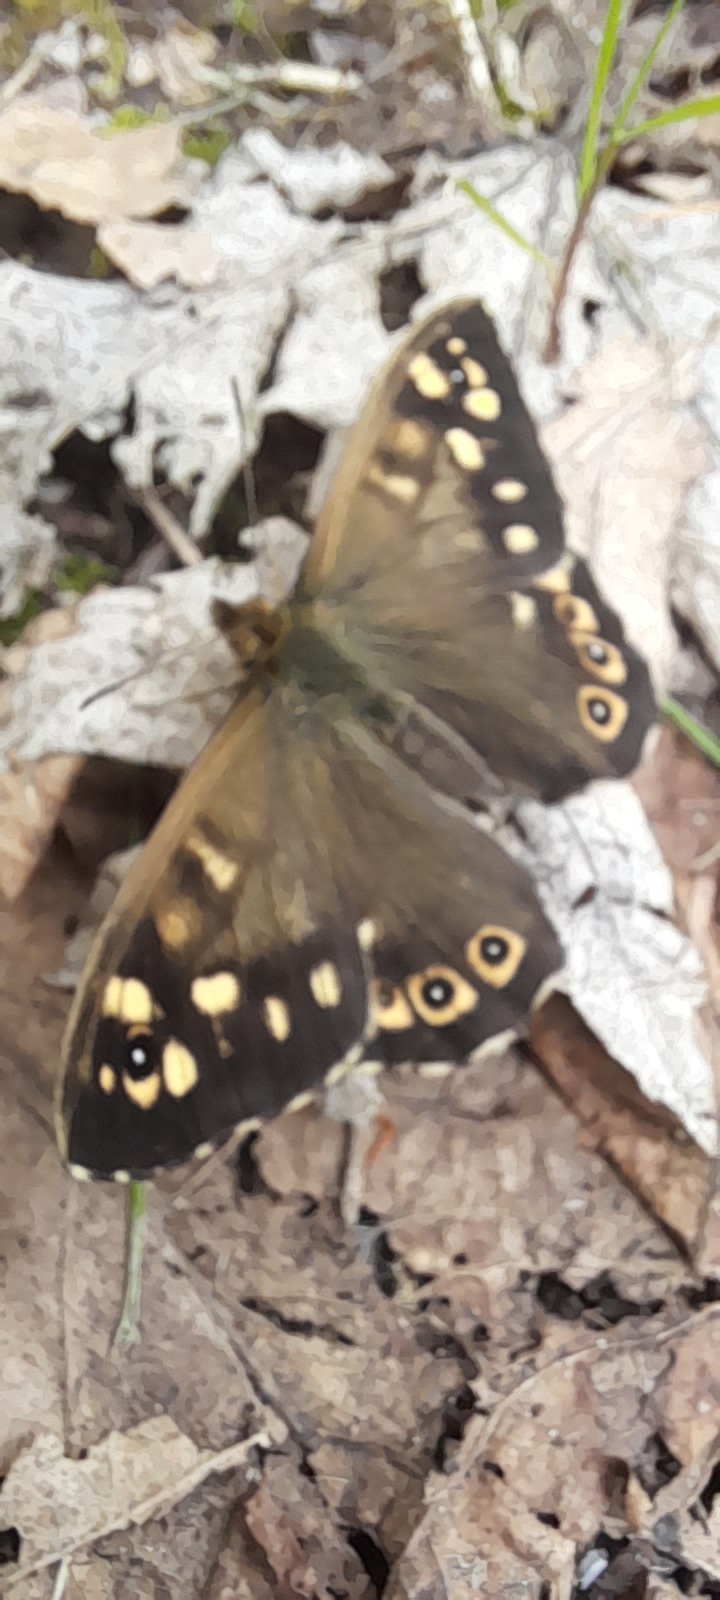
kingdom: Animalia
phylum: Arthropoda
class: Insecta
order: Lepidoptera
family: Nymphalidae
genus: Pararge
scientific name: Pararge aegeria
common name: Speckled wood
